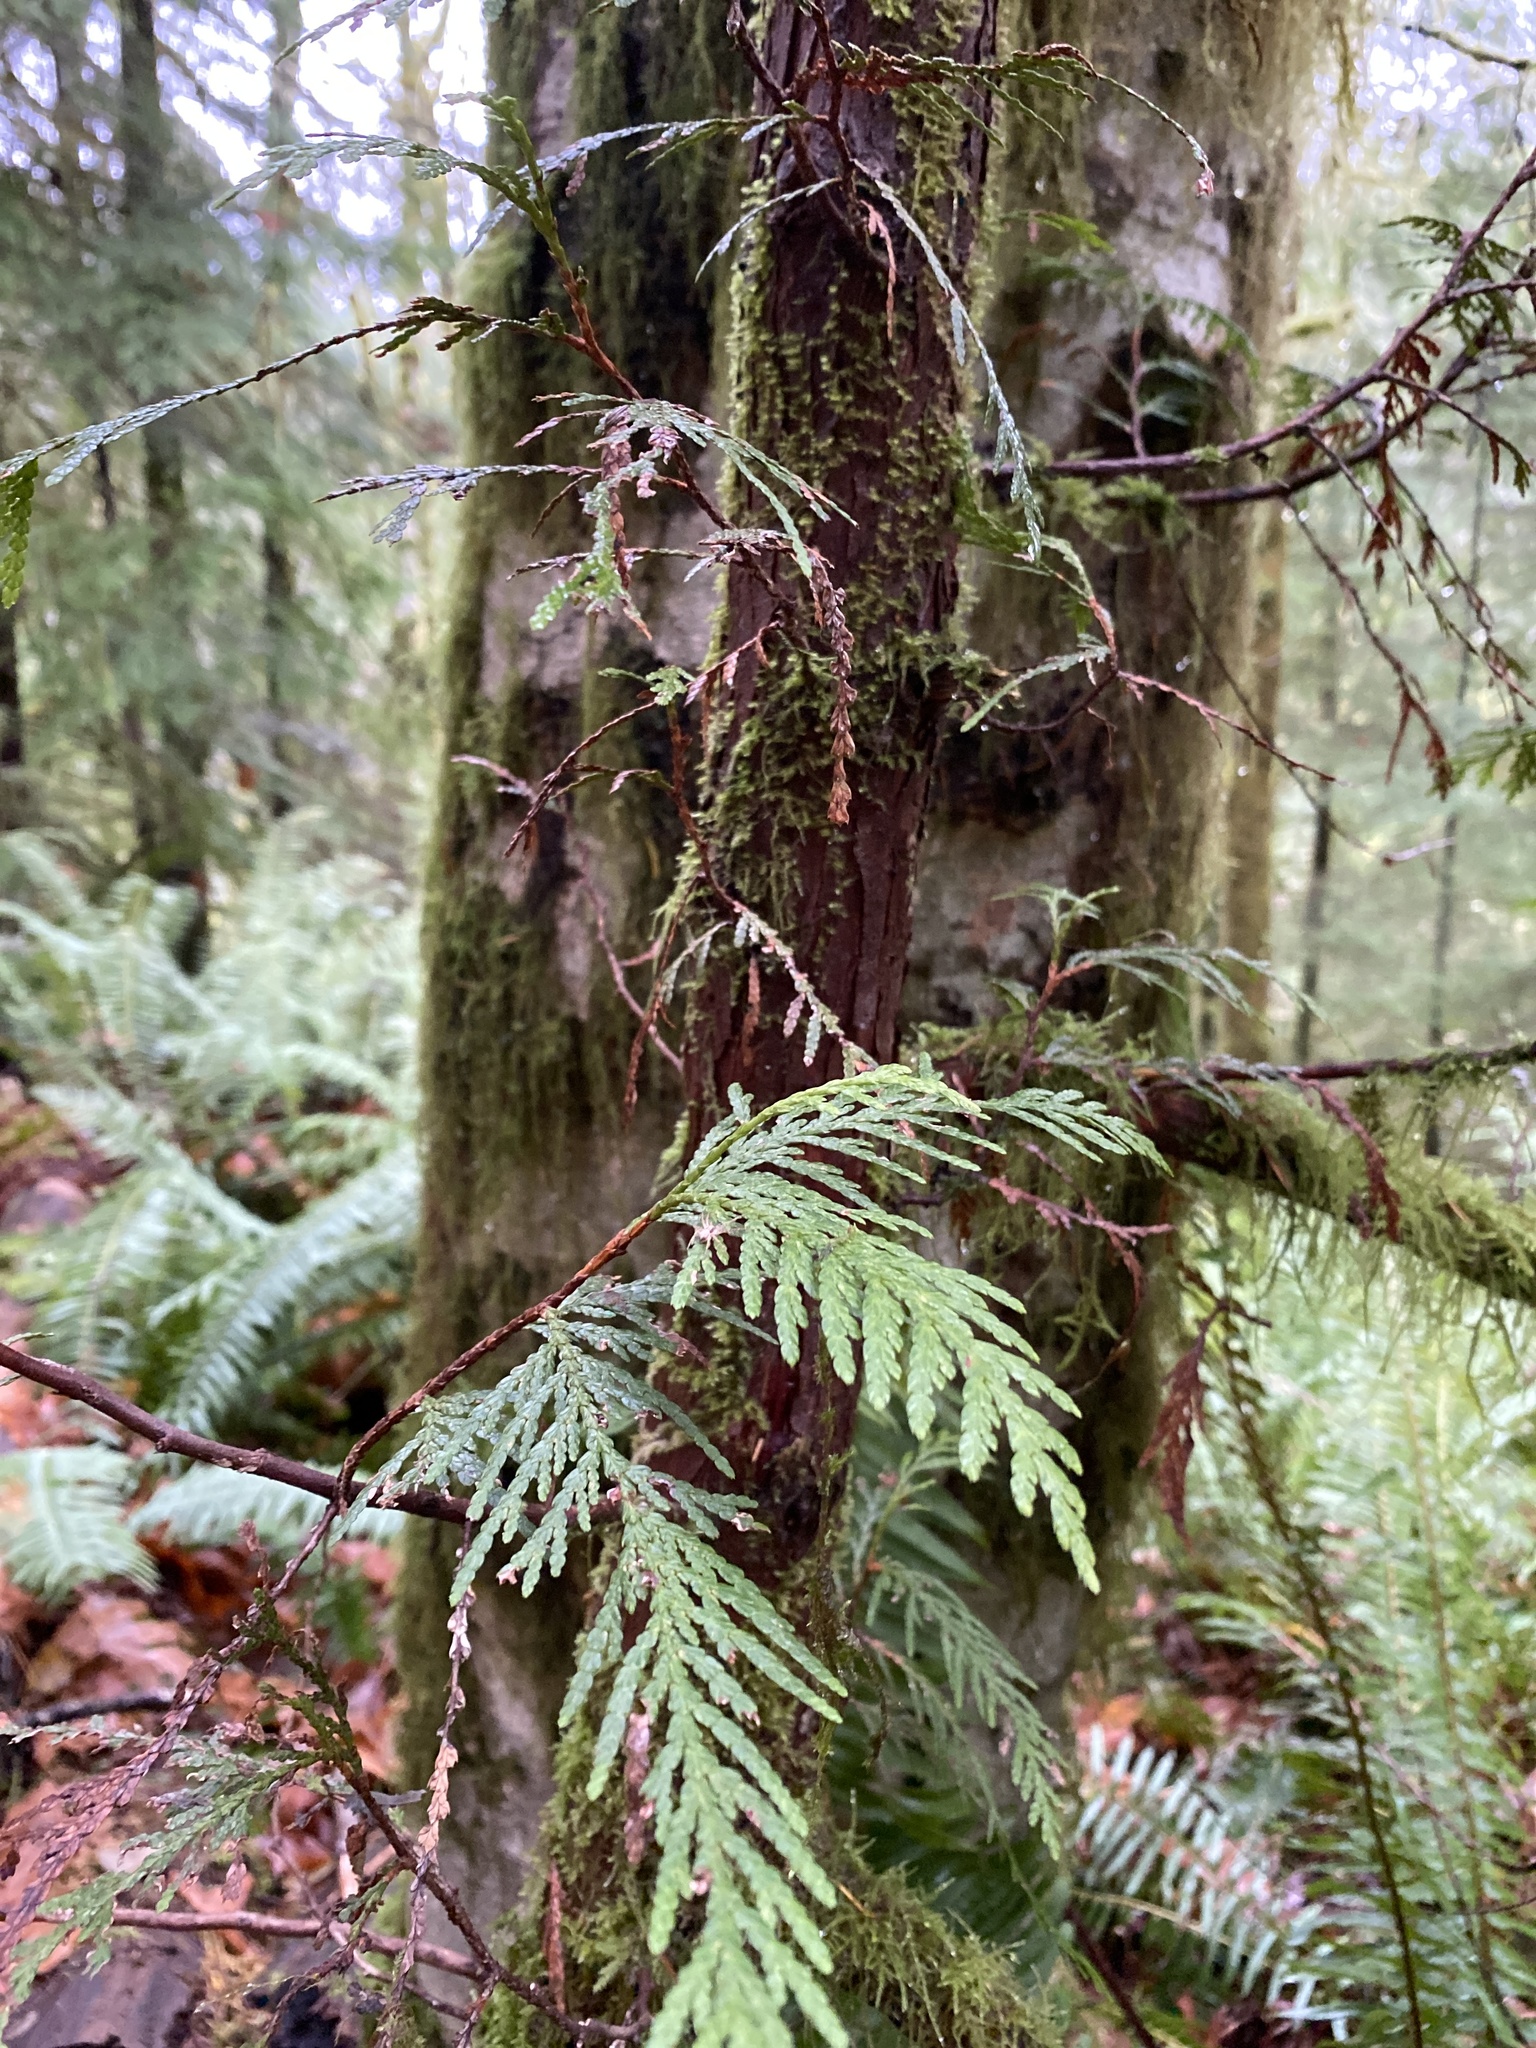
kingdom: Plantae
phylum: Tracheophyta
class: Pinopsida
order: Pinales
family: Cupressaceae
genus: Thuja
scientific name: Thuja plicata
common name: Western red-cedar
